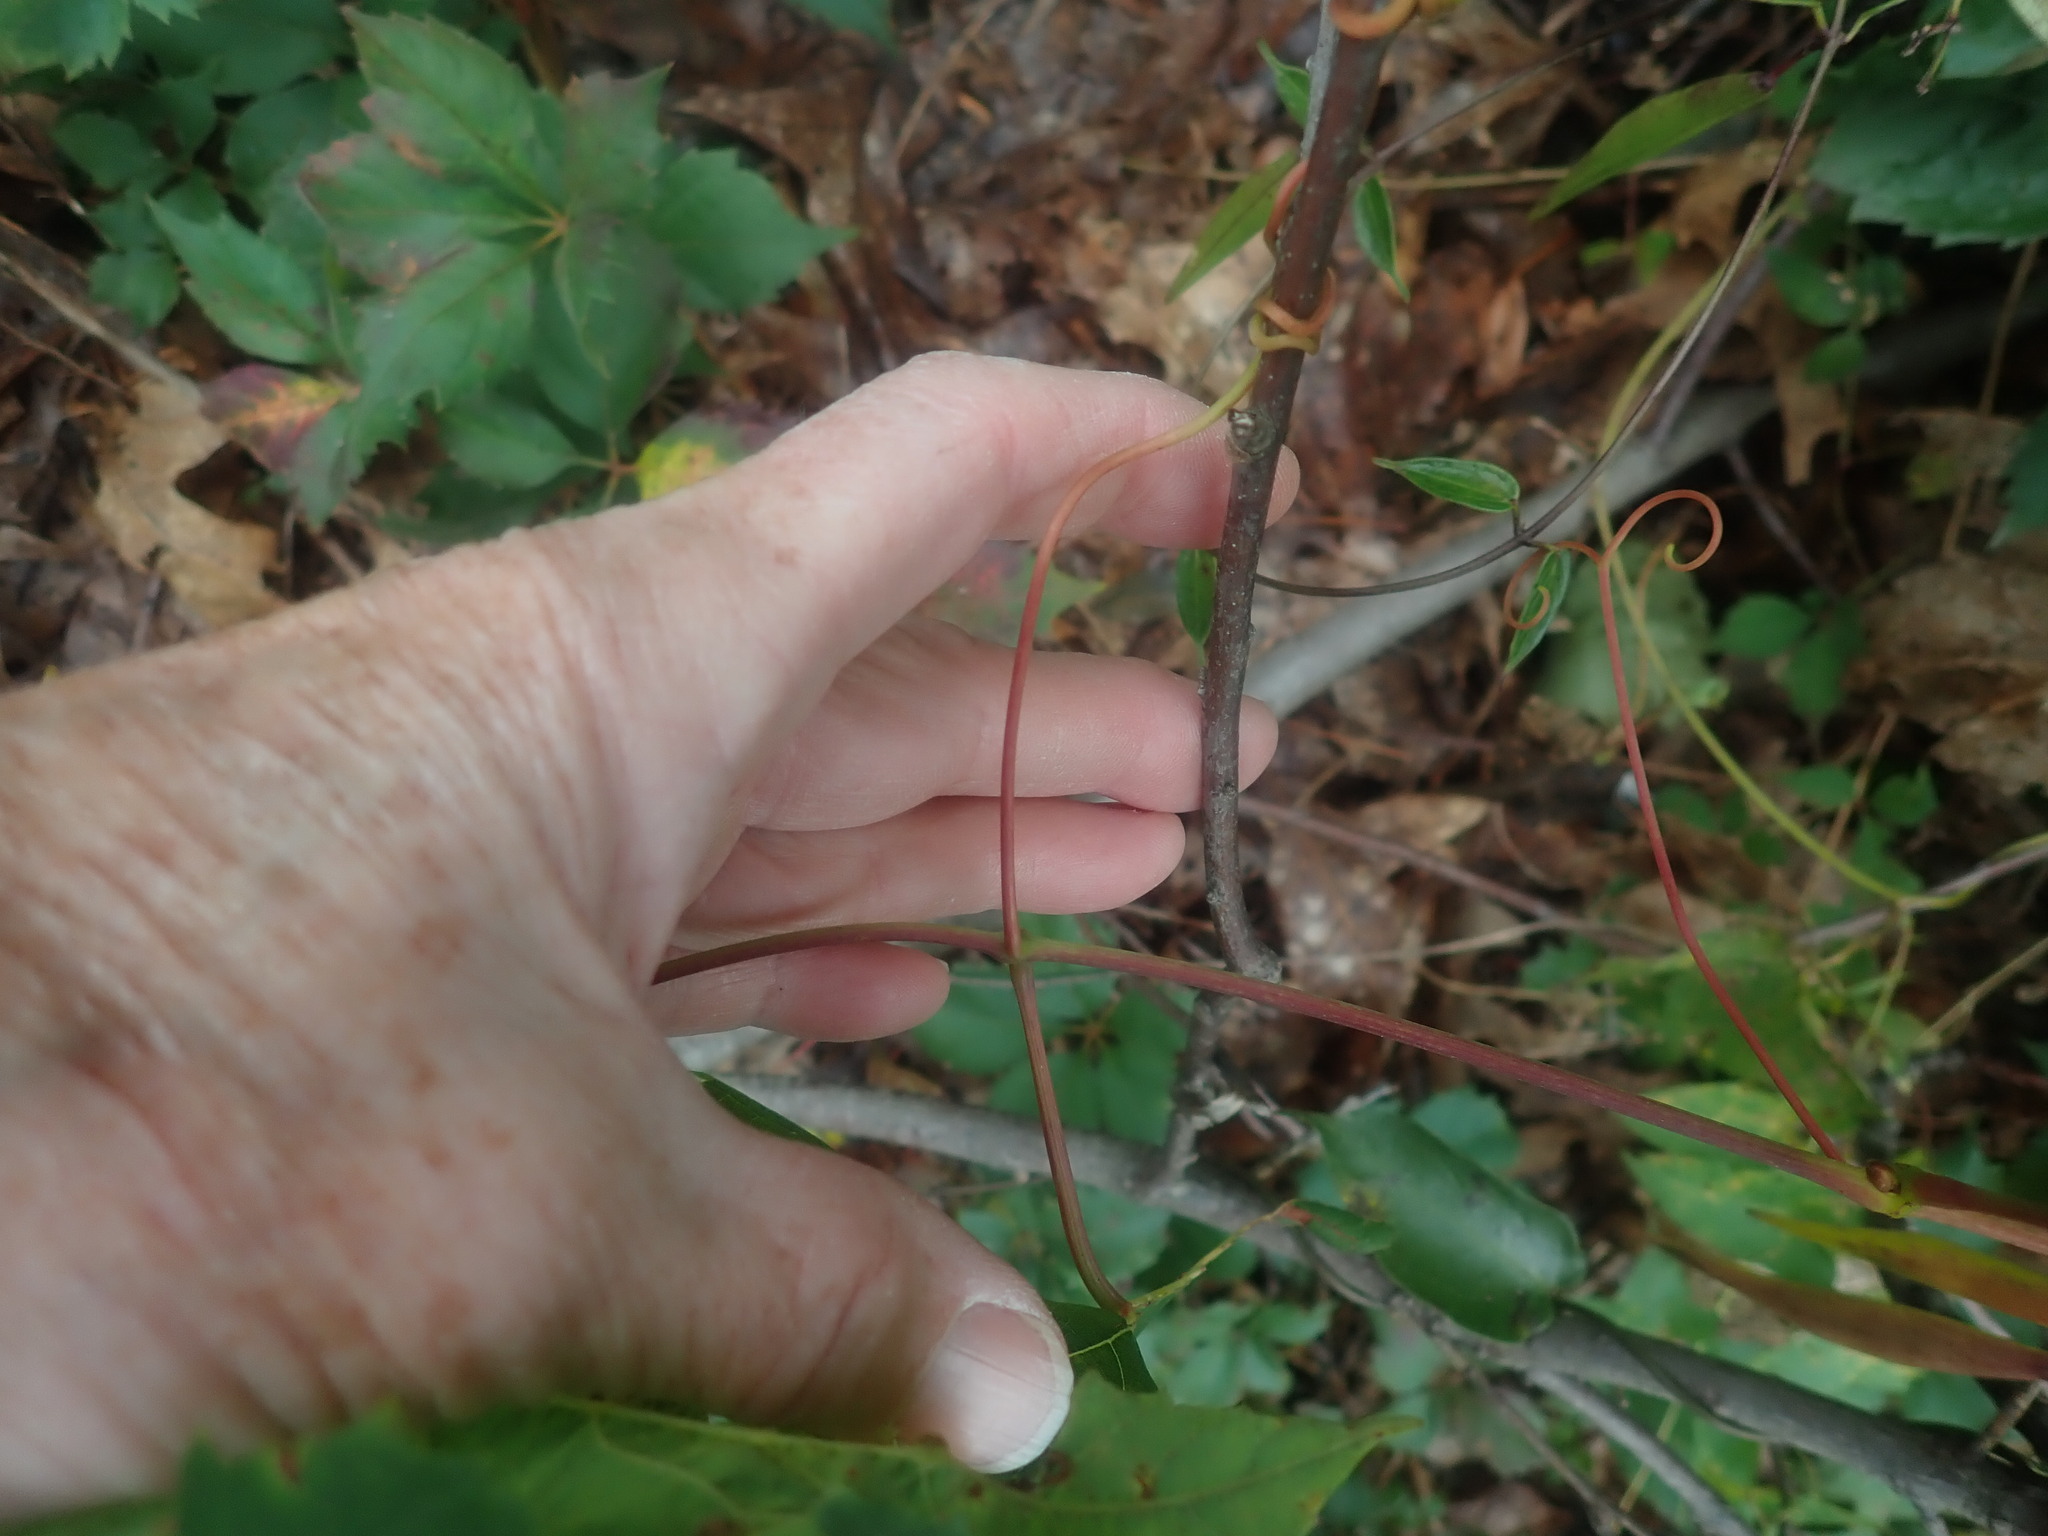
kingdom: Plantae
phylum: Tracheophyta
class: Magnoliopsida
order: Vitales
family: Vitaceae
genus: Vitis
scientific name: Vitis
